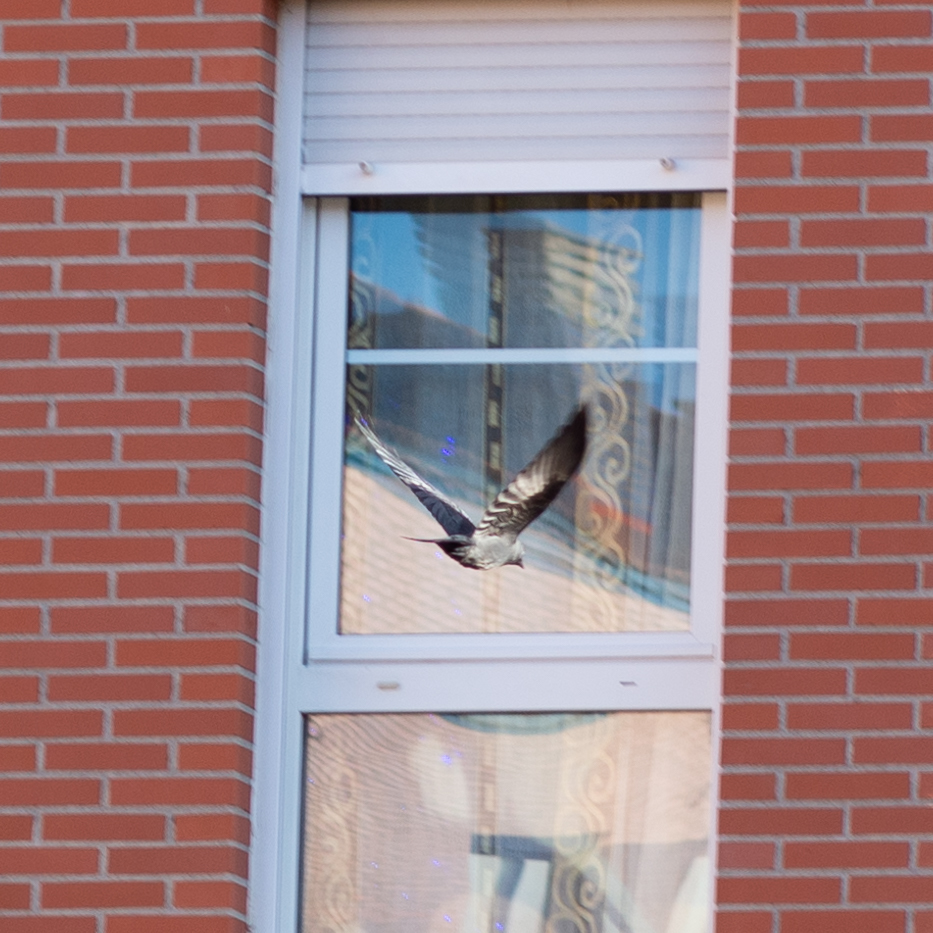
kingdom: Animalia
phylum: Chordata
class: Aves
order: Passeriformes
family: Corvidae
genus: Coloeus
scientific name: Coloeus monedula
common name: Western jackdaw
